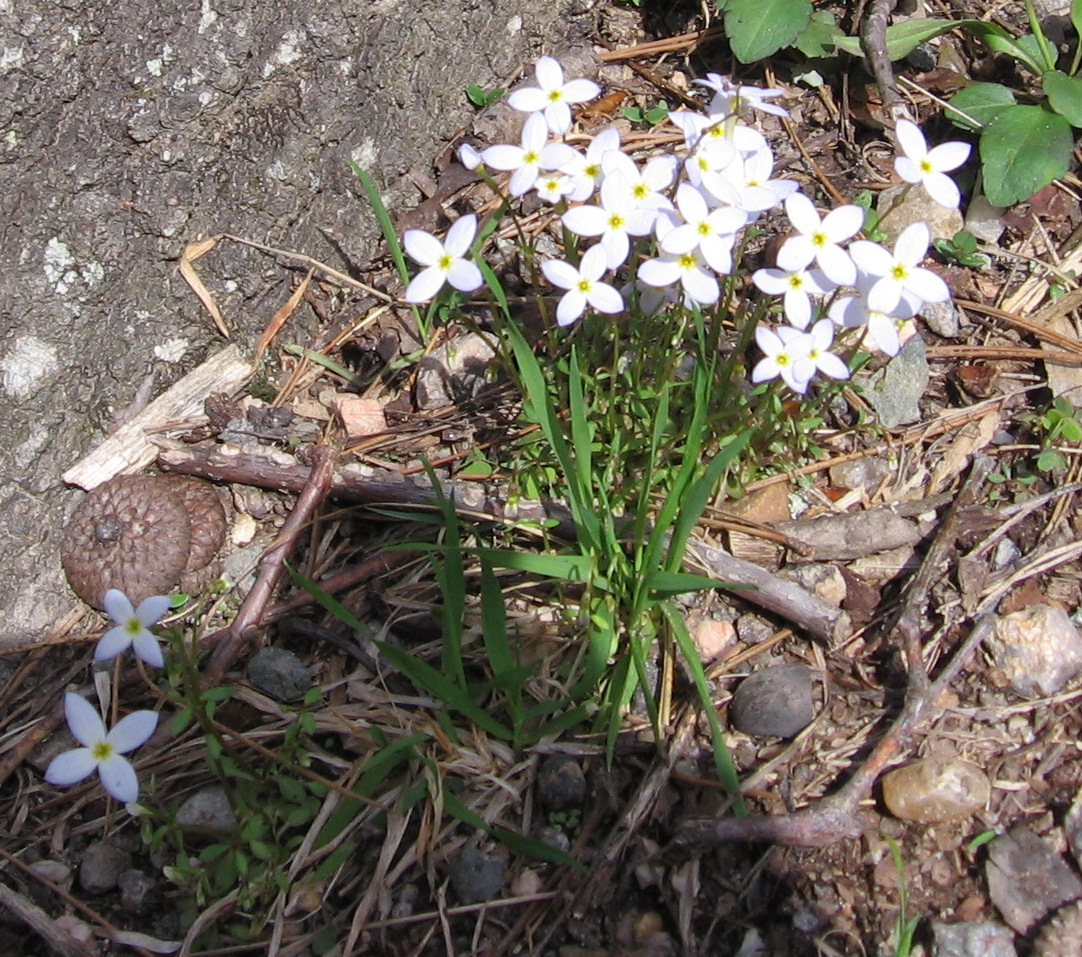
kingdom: Plantae
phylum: Tracheophyta
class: Magnoliopsida
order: Gentianales
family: Rubiaceae
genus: Houstonia
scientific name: Houstonia caerulea
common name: Bluets
